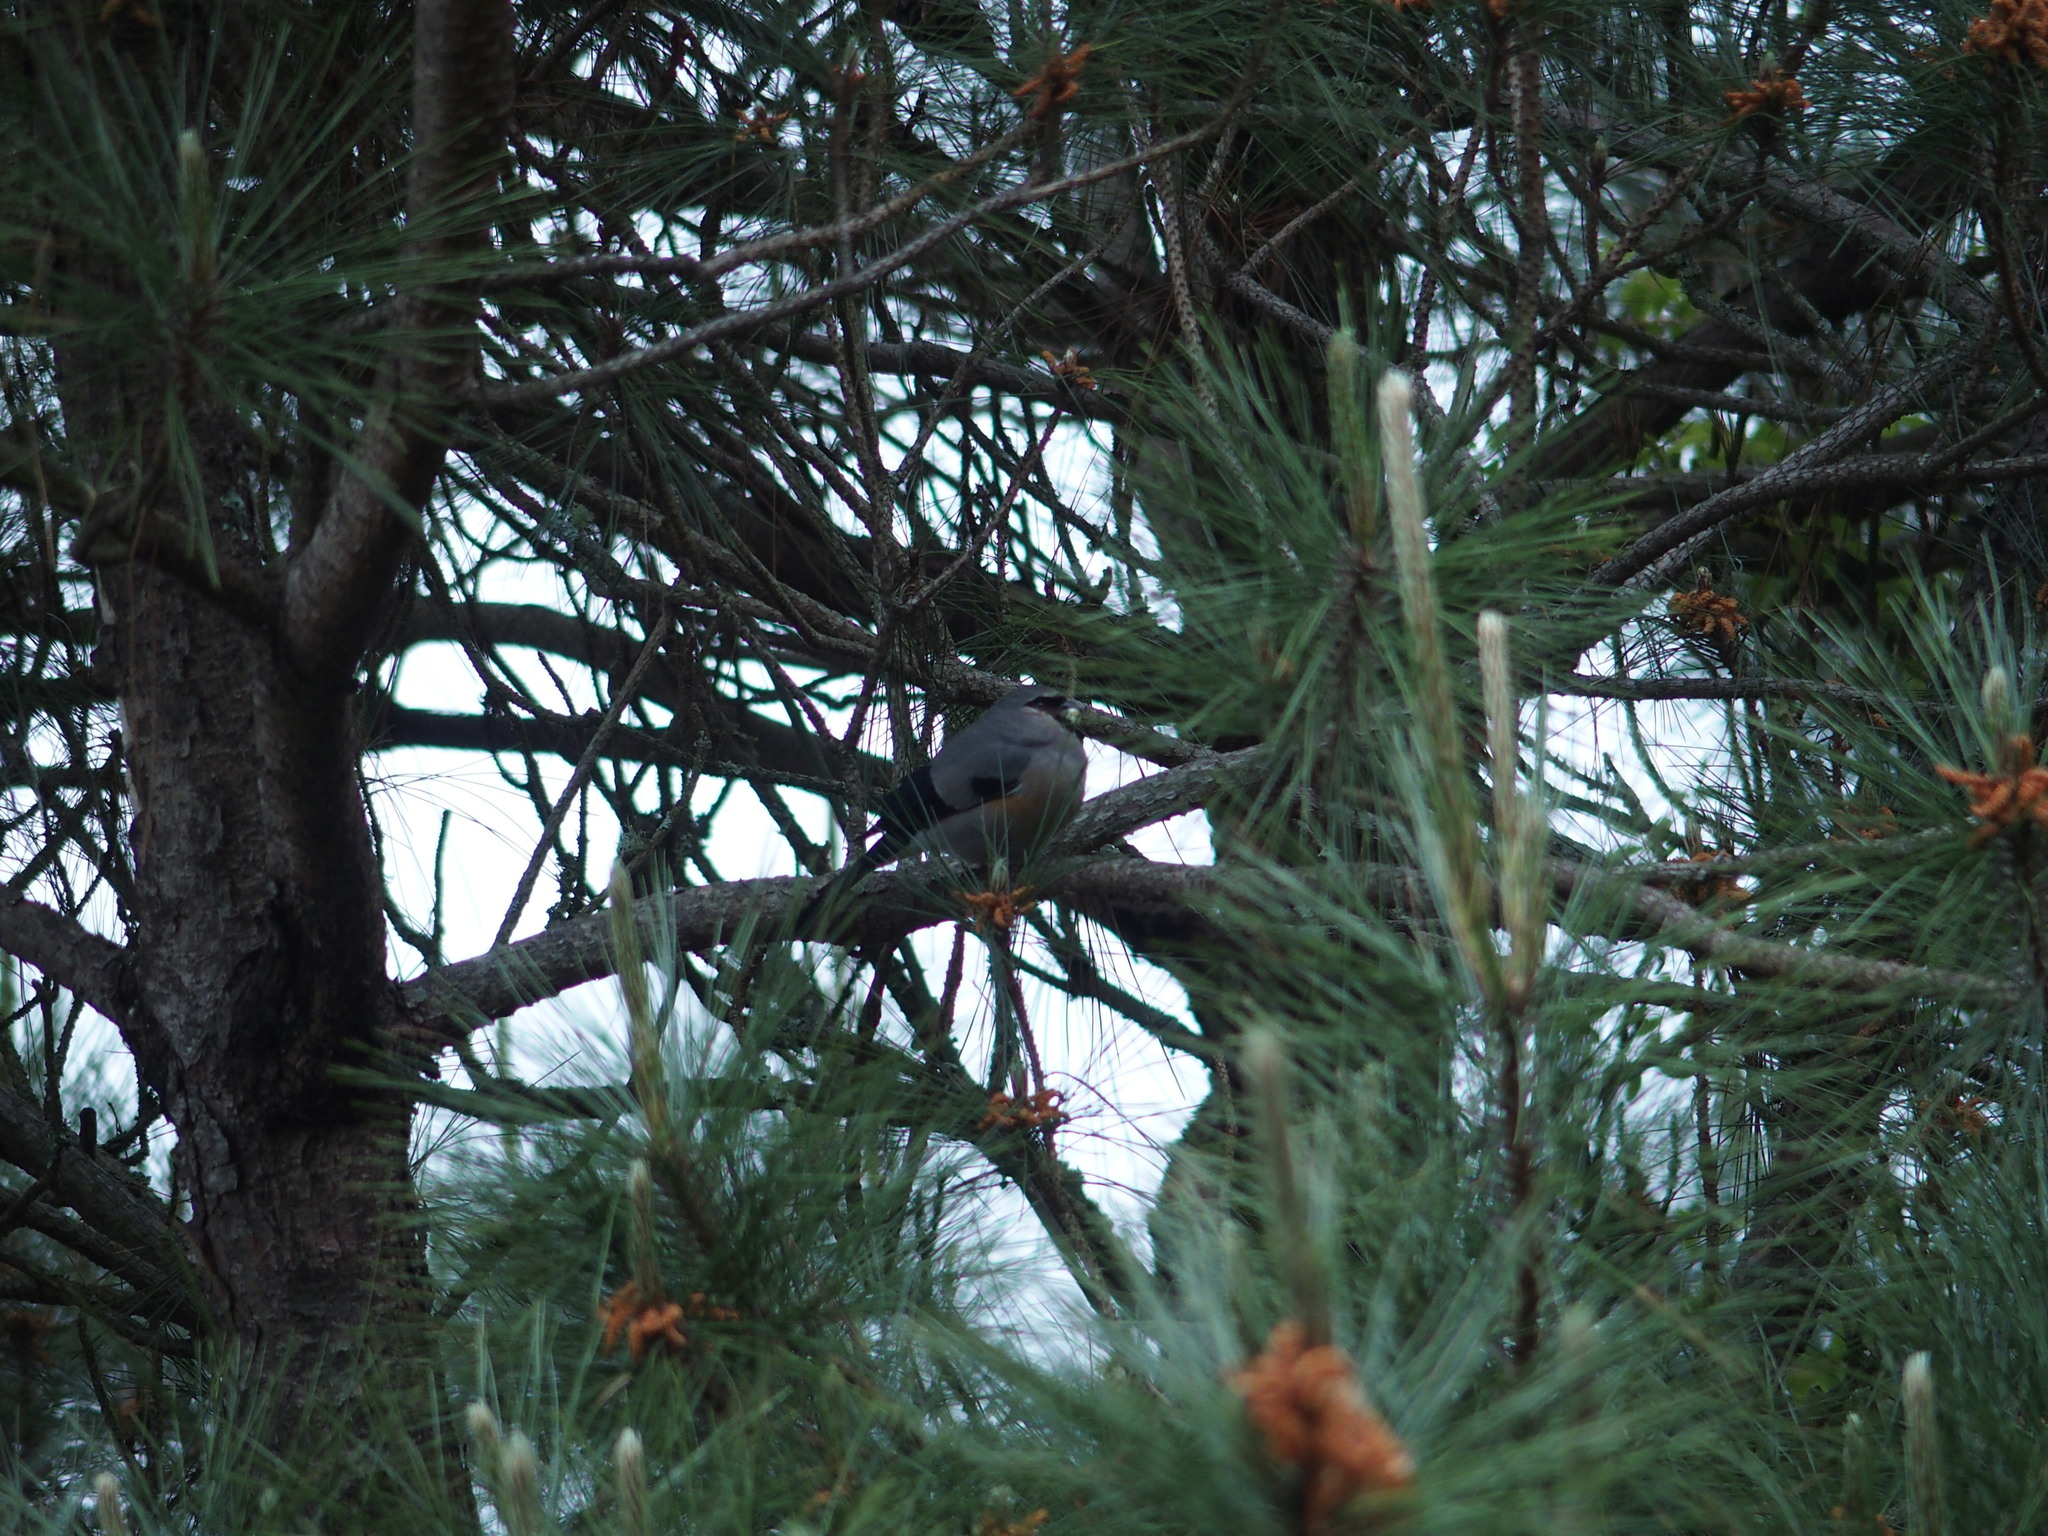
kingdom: Animalia
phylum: Chordata
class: Aves
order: Passeriformes
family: Fringillidae
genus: Pyrrhula
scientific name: Pyrrhula owstoni
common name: Taiwan bullfinch
